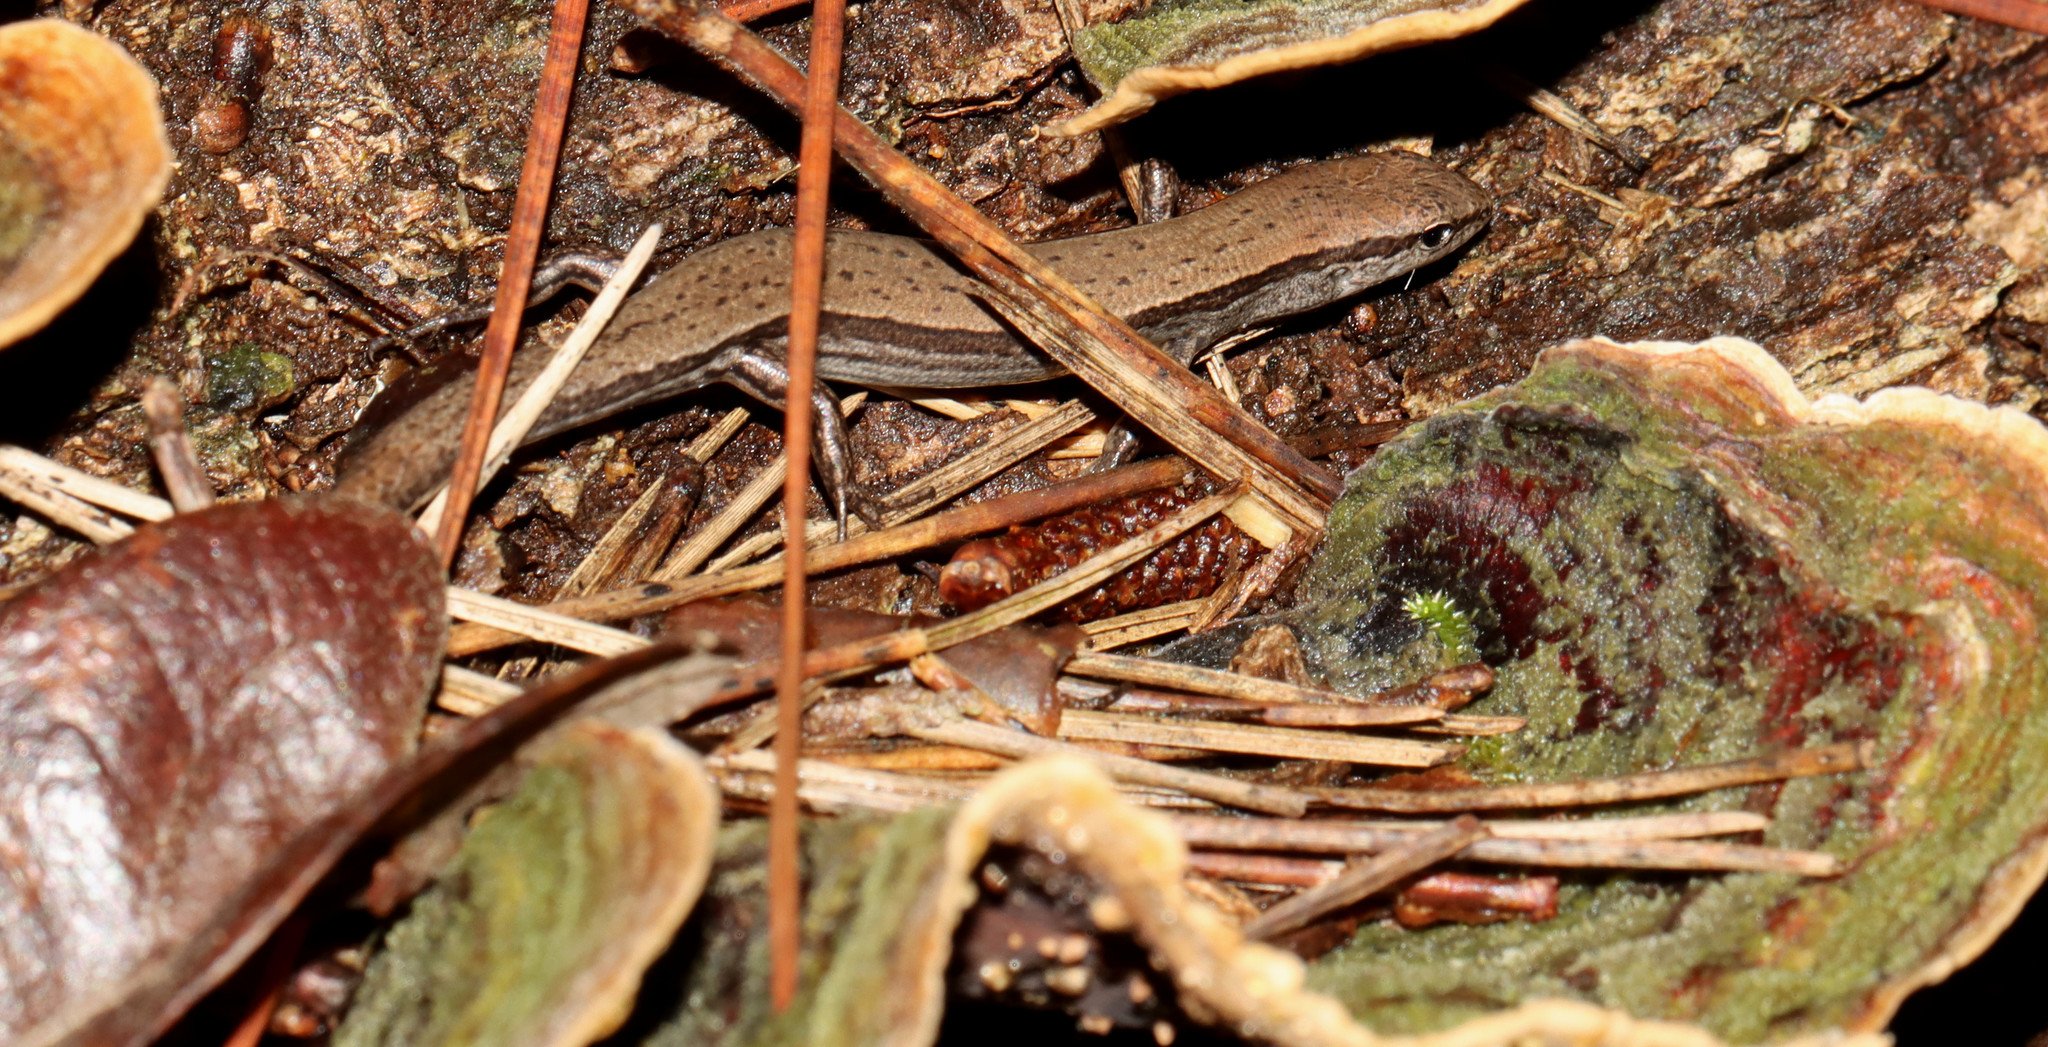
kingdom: Animalia
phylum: Chordata
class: Squamata
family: Scincidae
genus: Scincella
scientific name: Scincella lateralis
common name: Ground skink
